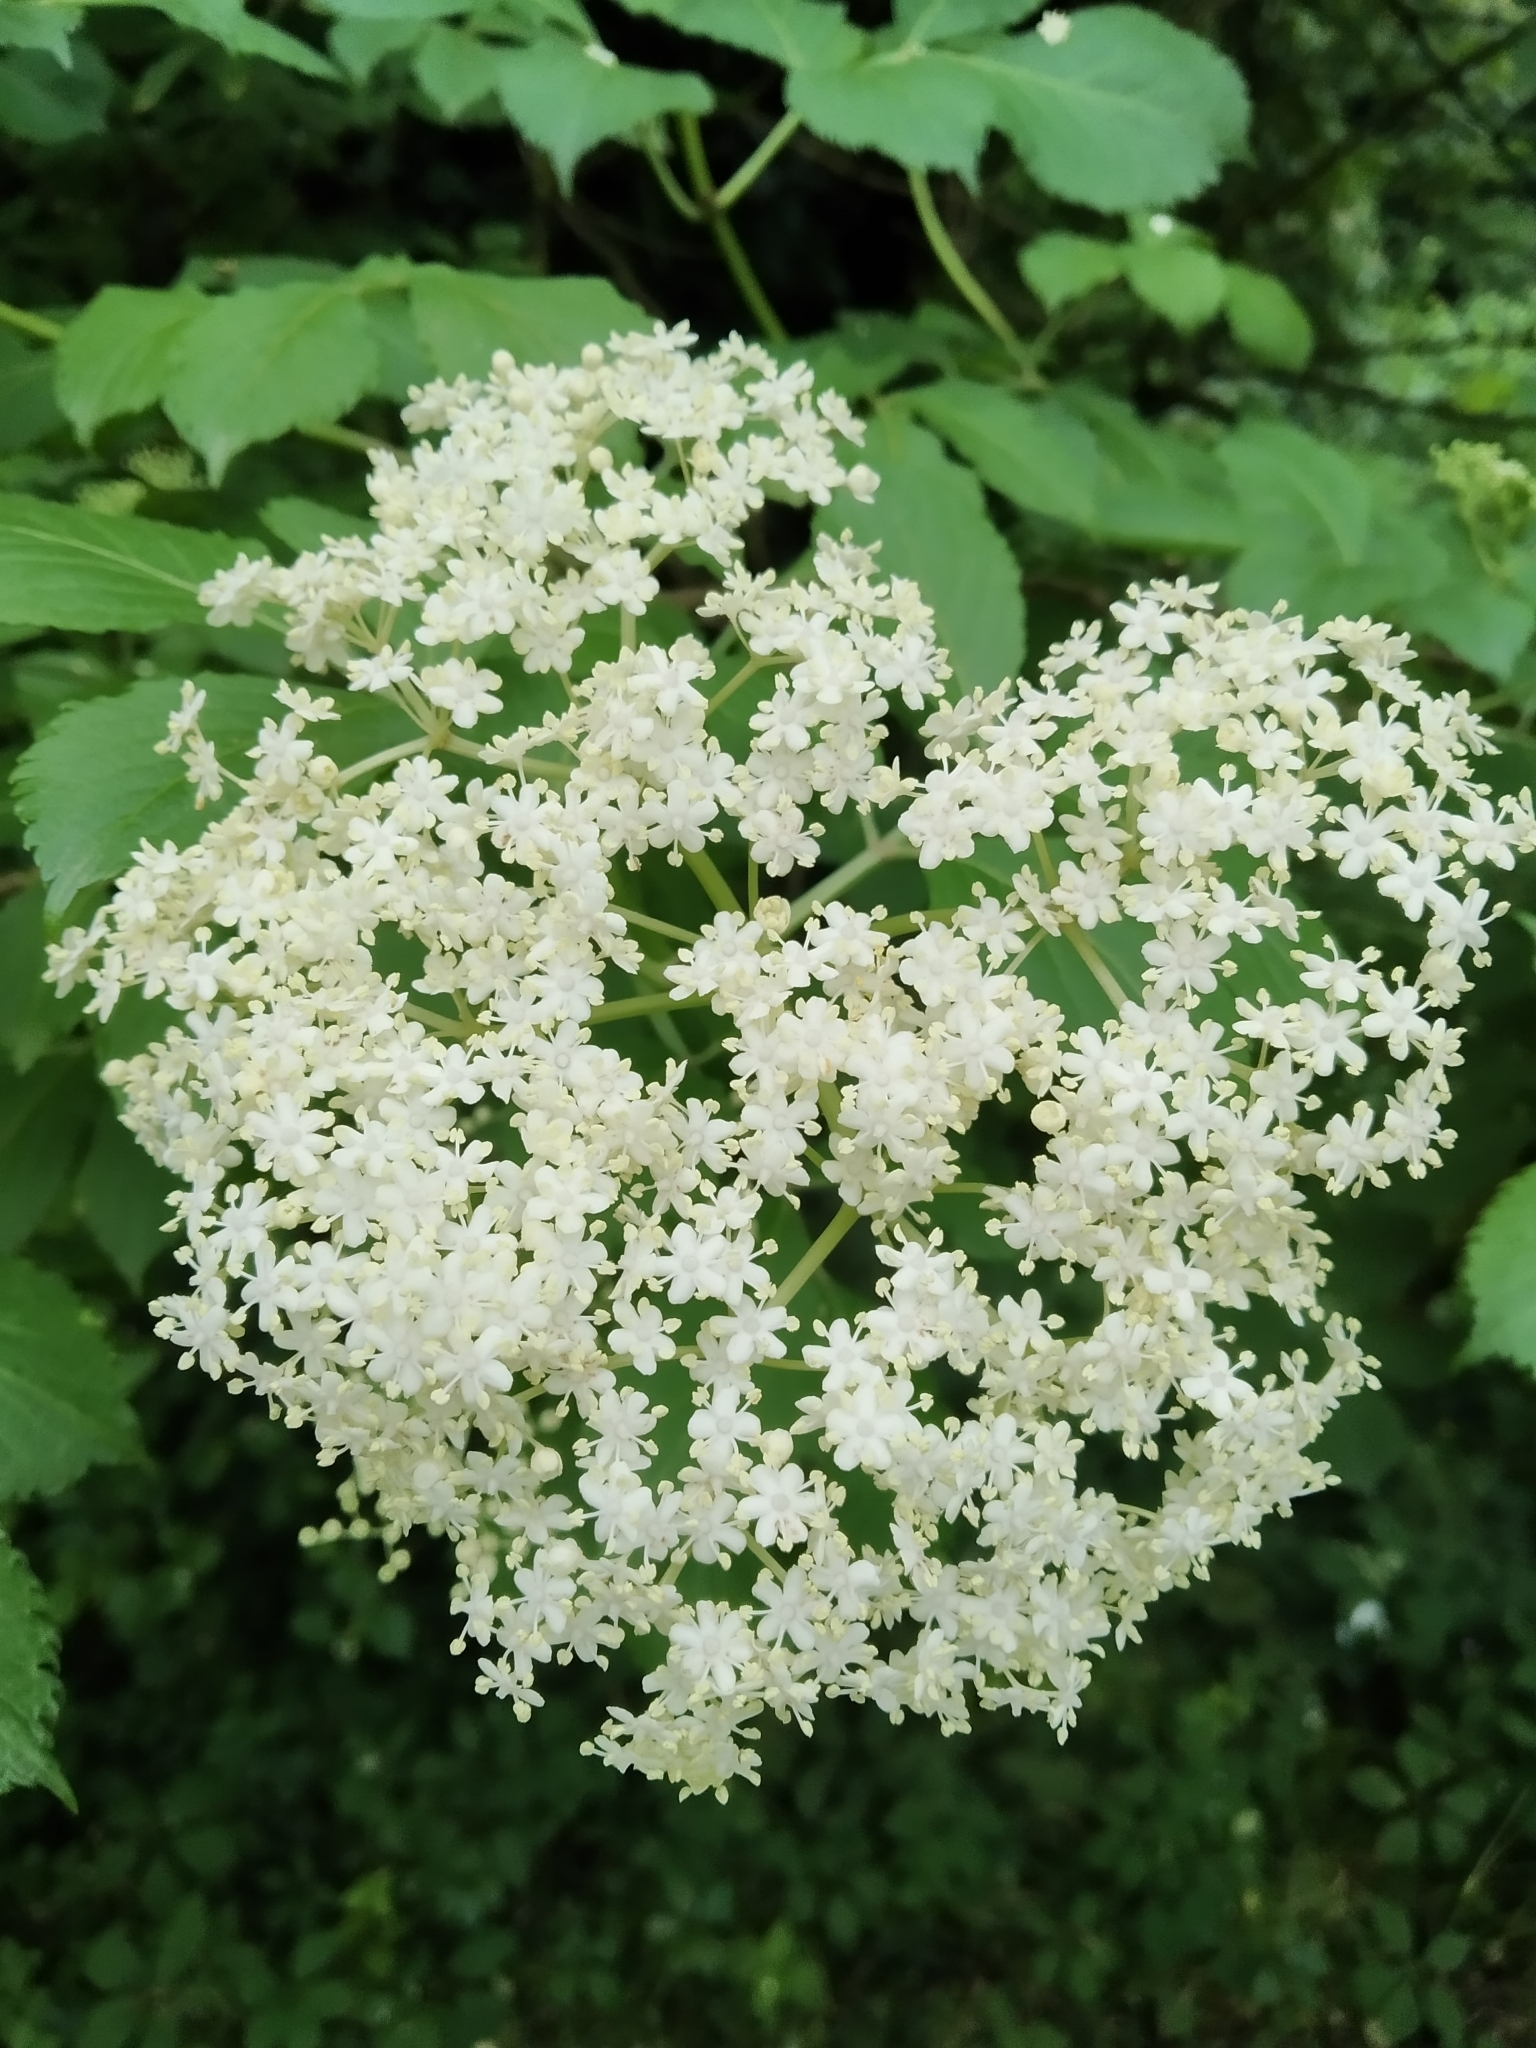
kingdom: Plantae
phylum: Tracheophyta
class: Magnoliopsida
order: Dipsacales
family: Viburnaceae
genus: Sambucus
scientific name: Sambucus nigra
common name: Elder
